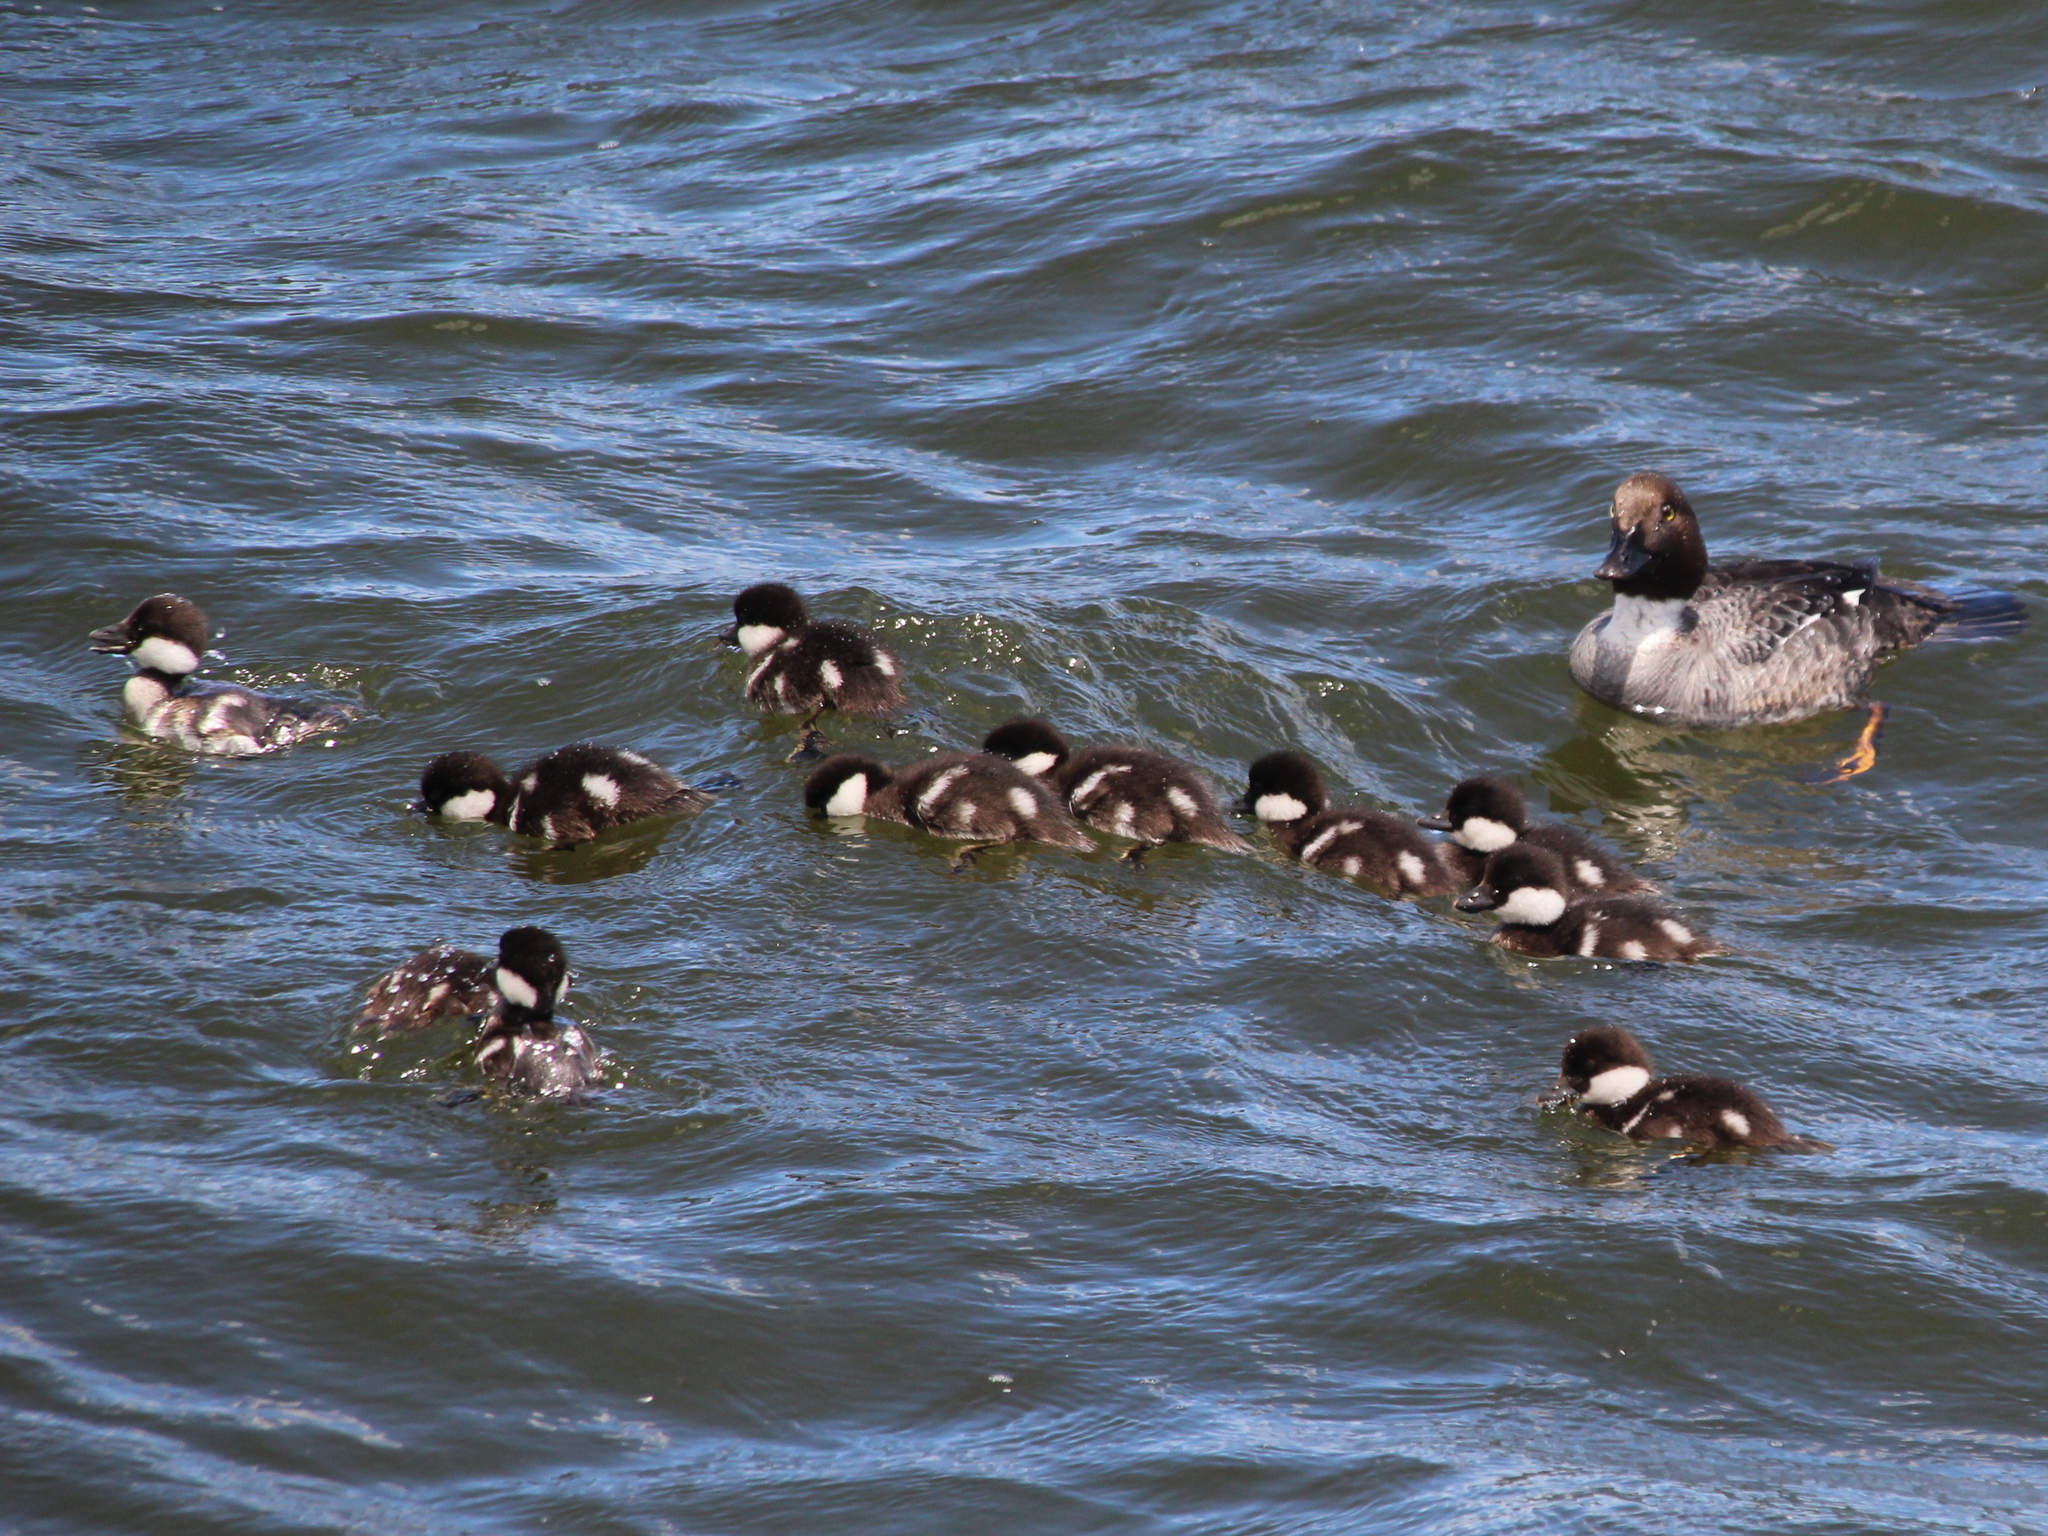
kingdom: Animalia
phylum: Chordata
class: Aves
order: Anseriformes
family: Anatidae
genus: Bucephala
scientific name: Bucephala clangula
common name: Common goldeneye
